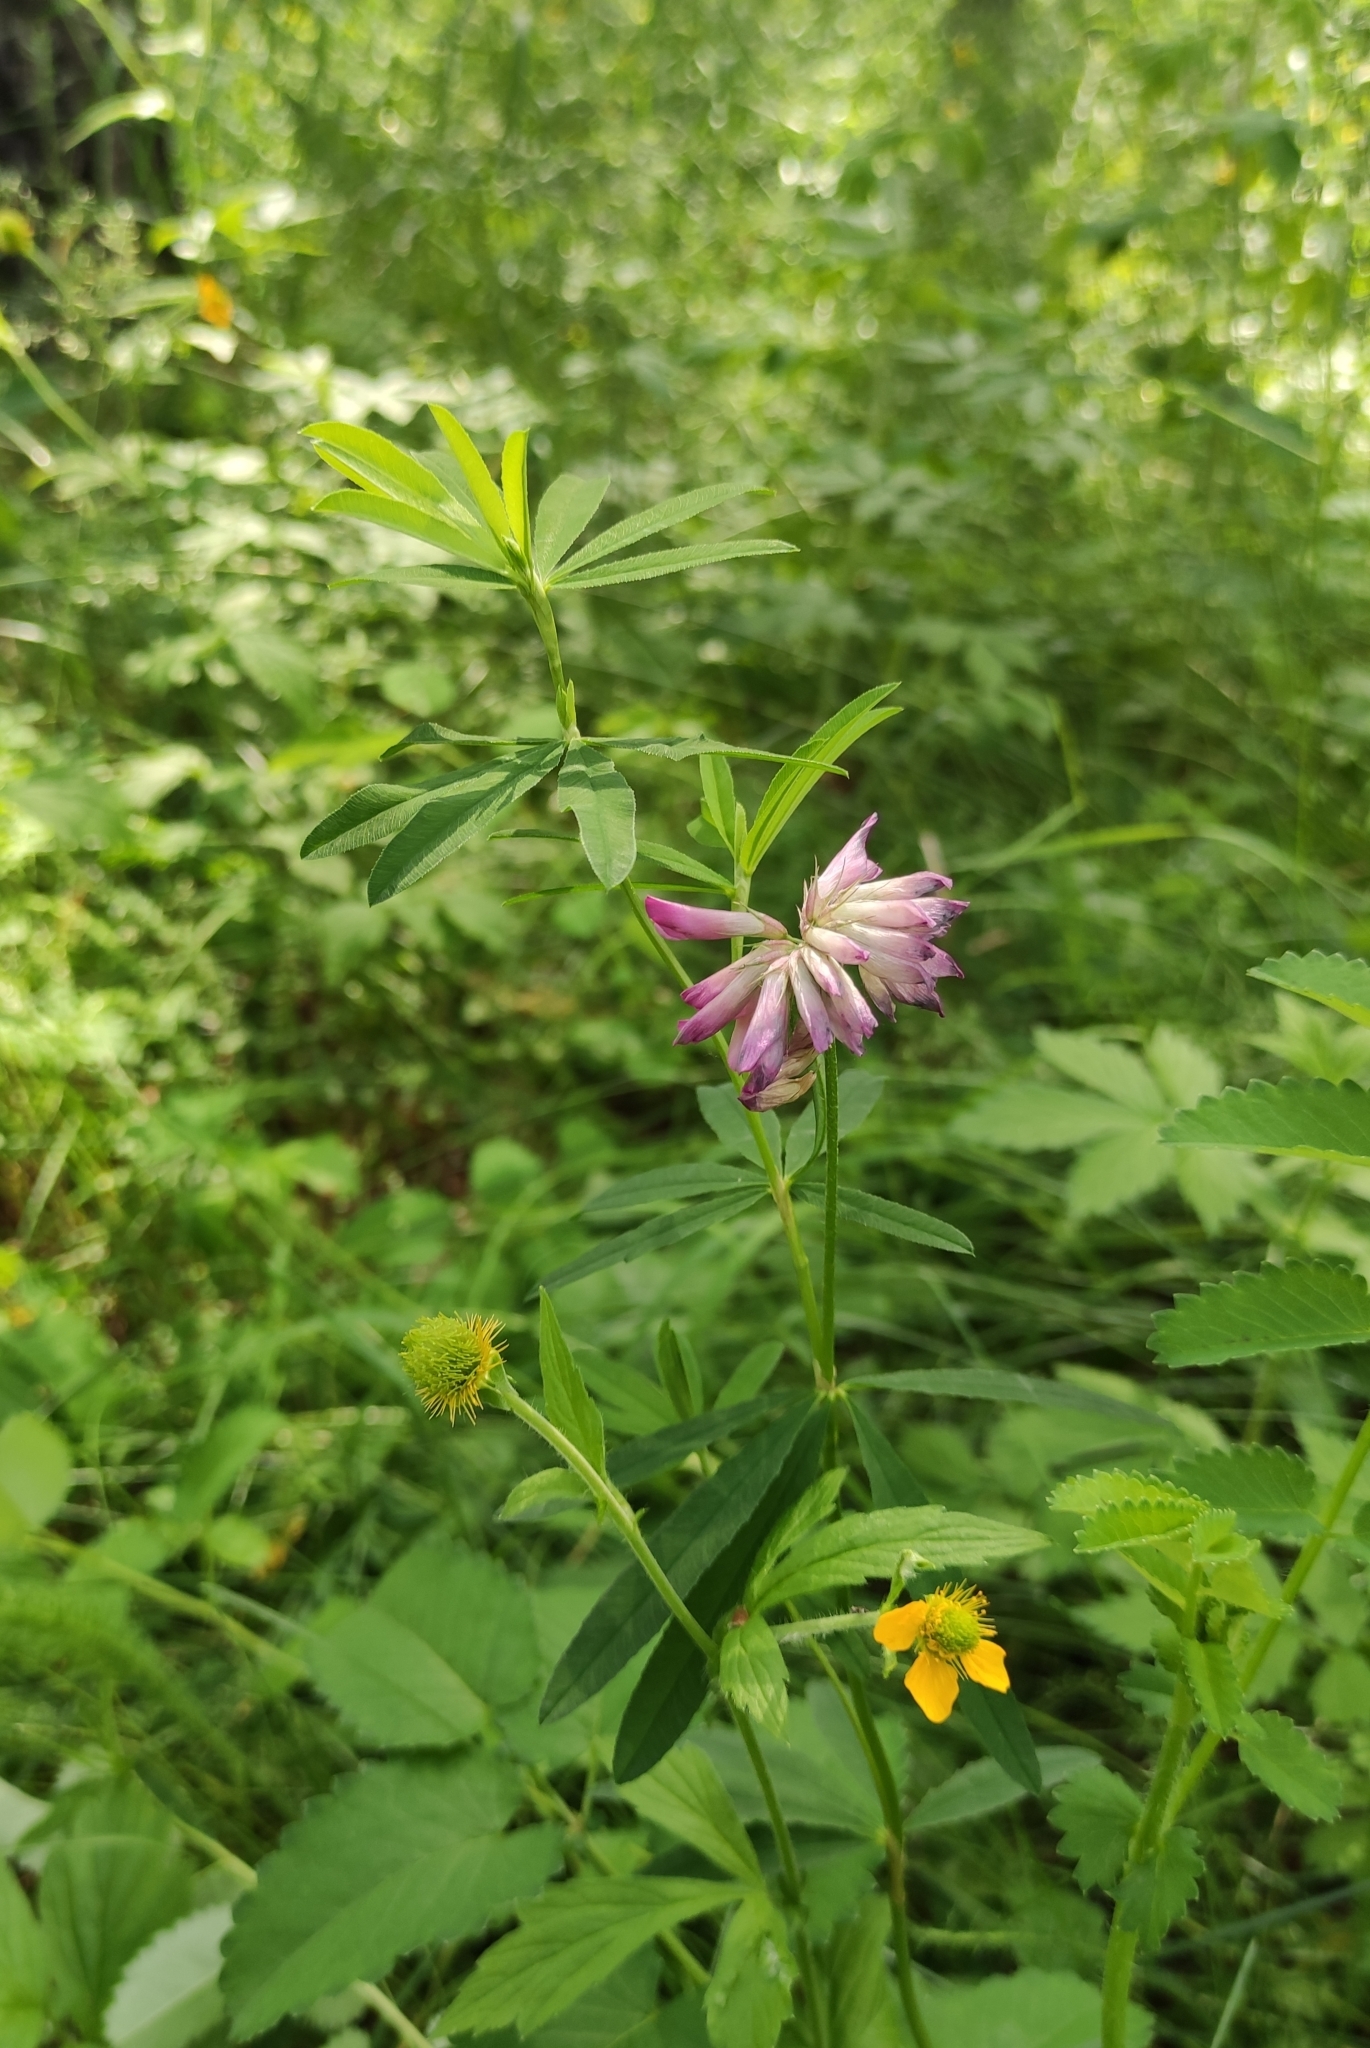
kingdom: Plantae
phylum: Tracheophyta
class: Magnoliopsida
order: Fabales
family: Fabaceae
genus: Trifolium
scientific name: Trifolium lupinaster
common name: Lupine clover
